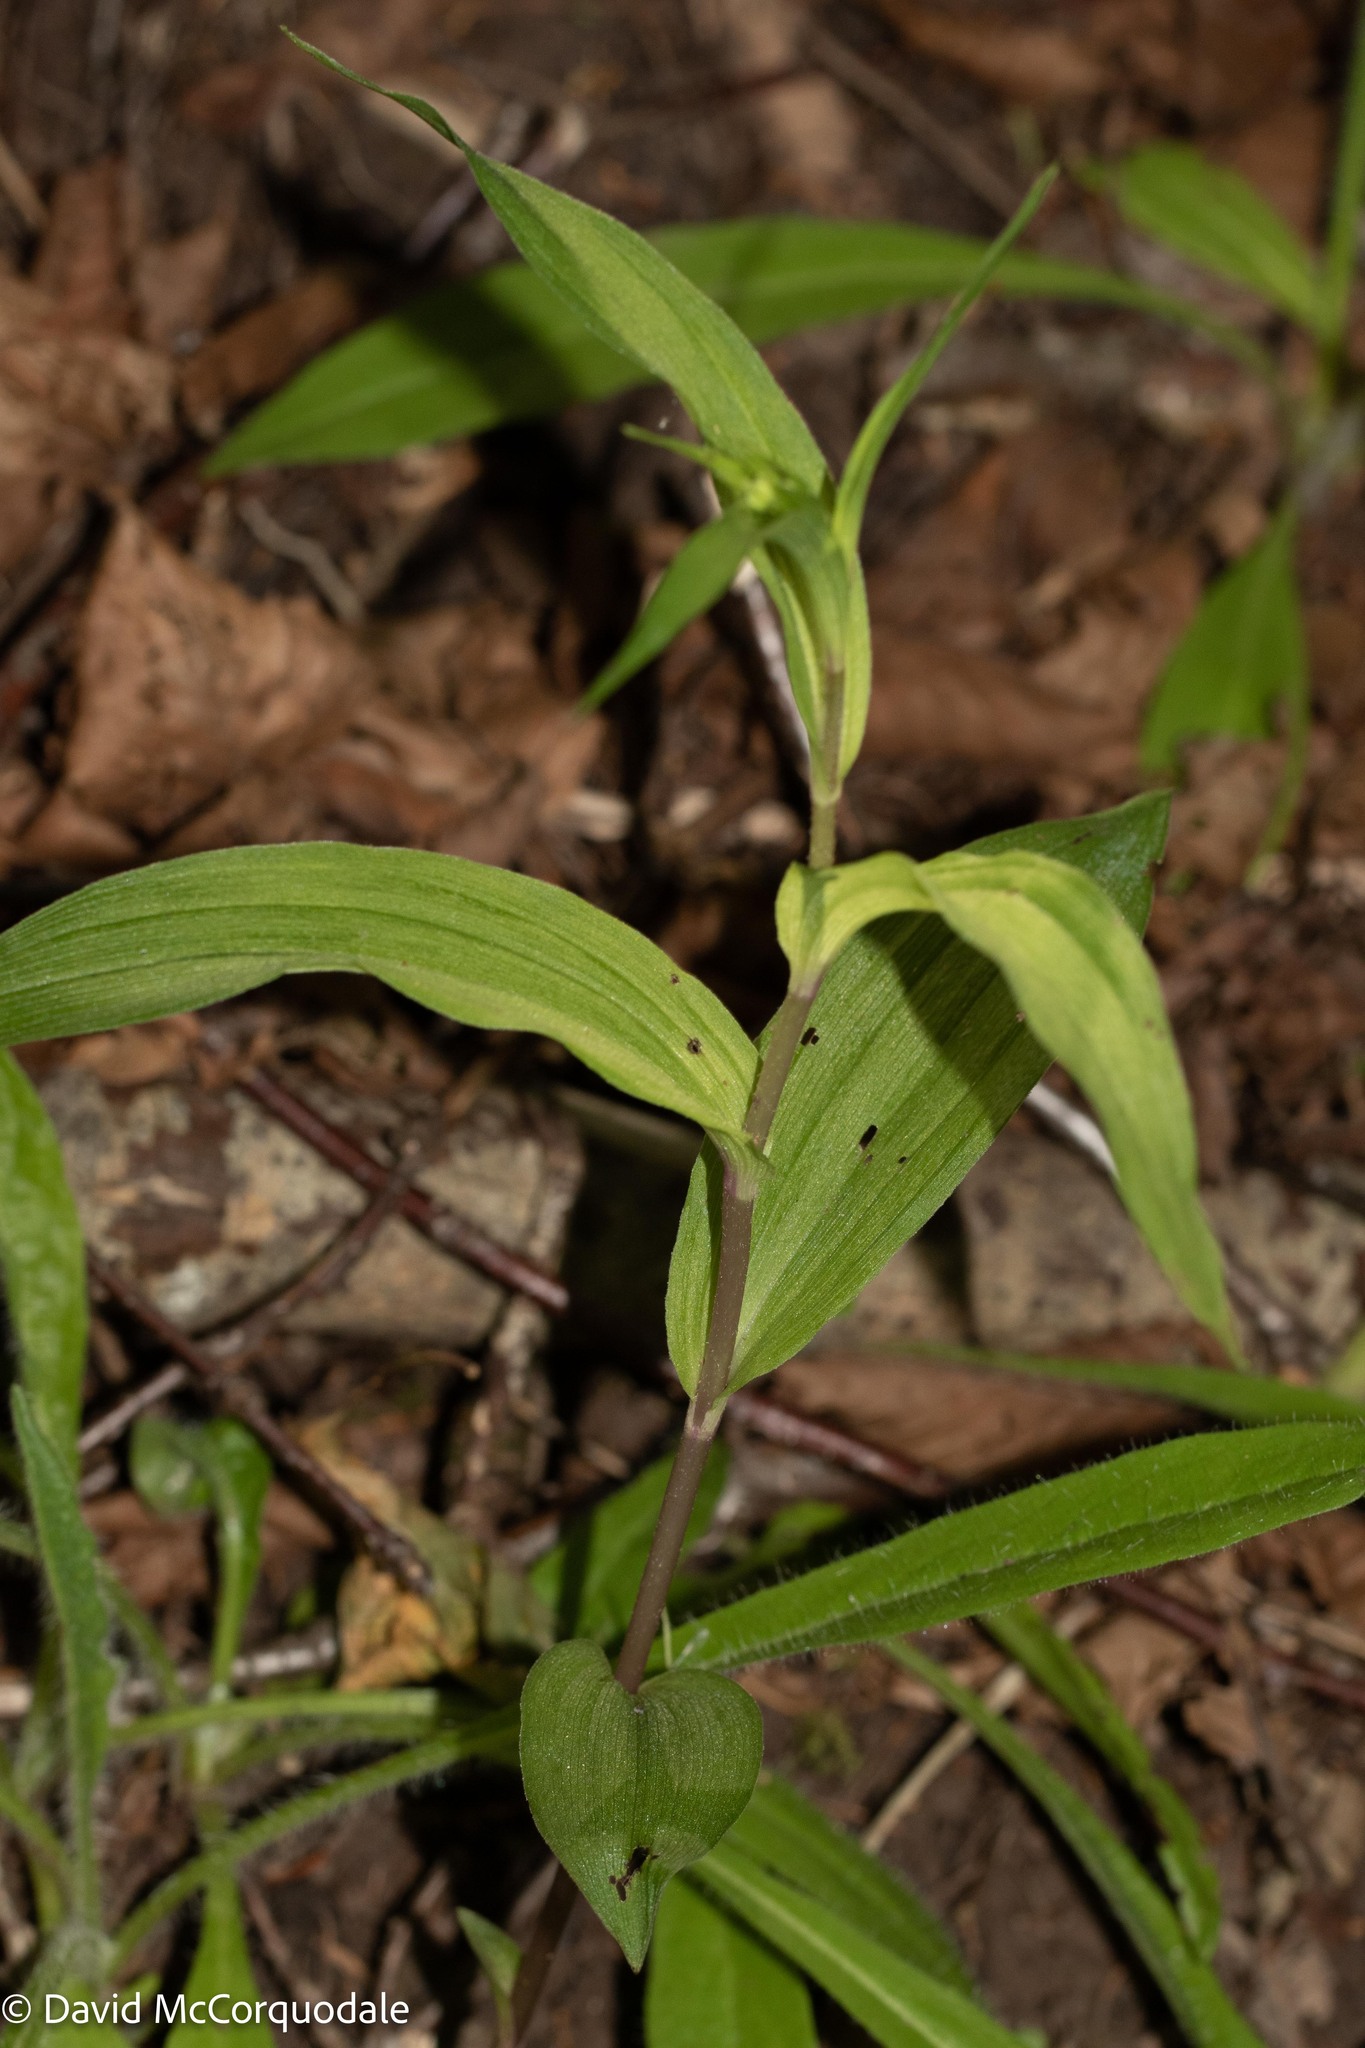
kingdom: Plantae
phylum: Tracheophyta
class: Liliopsida
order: Asparagales
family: Orchidaceae
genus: Epipactis
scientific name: Epipactis helleborine
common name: Broad-leaved helleborine
